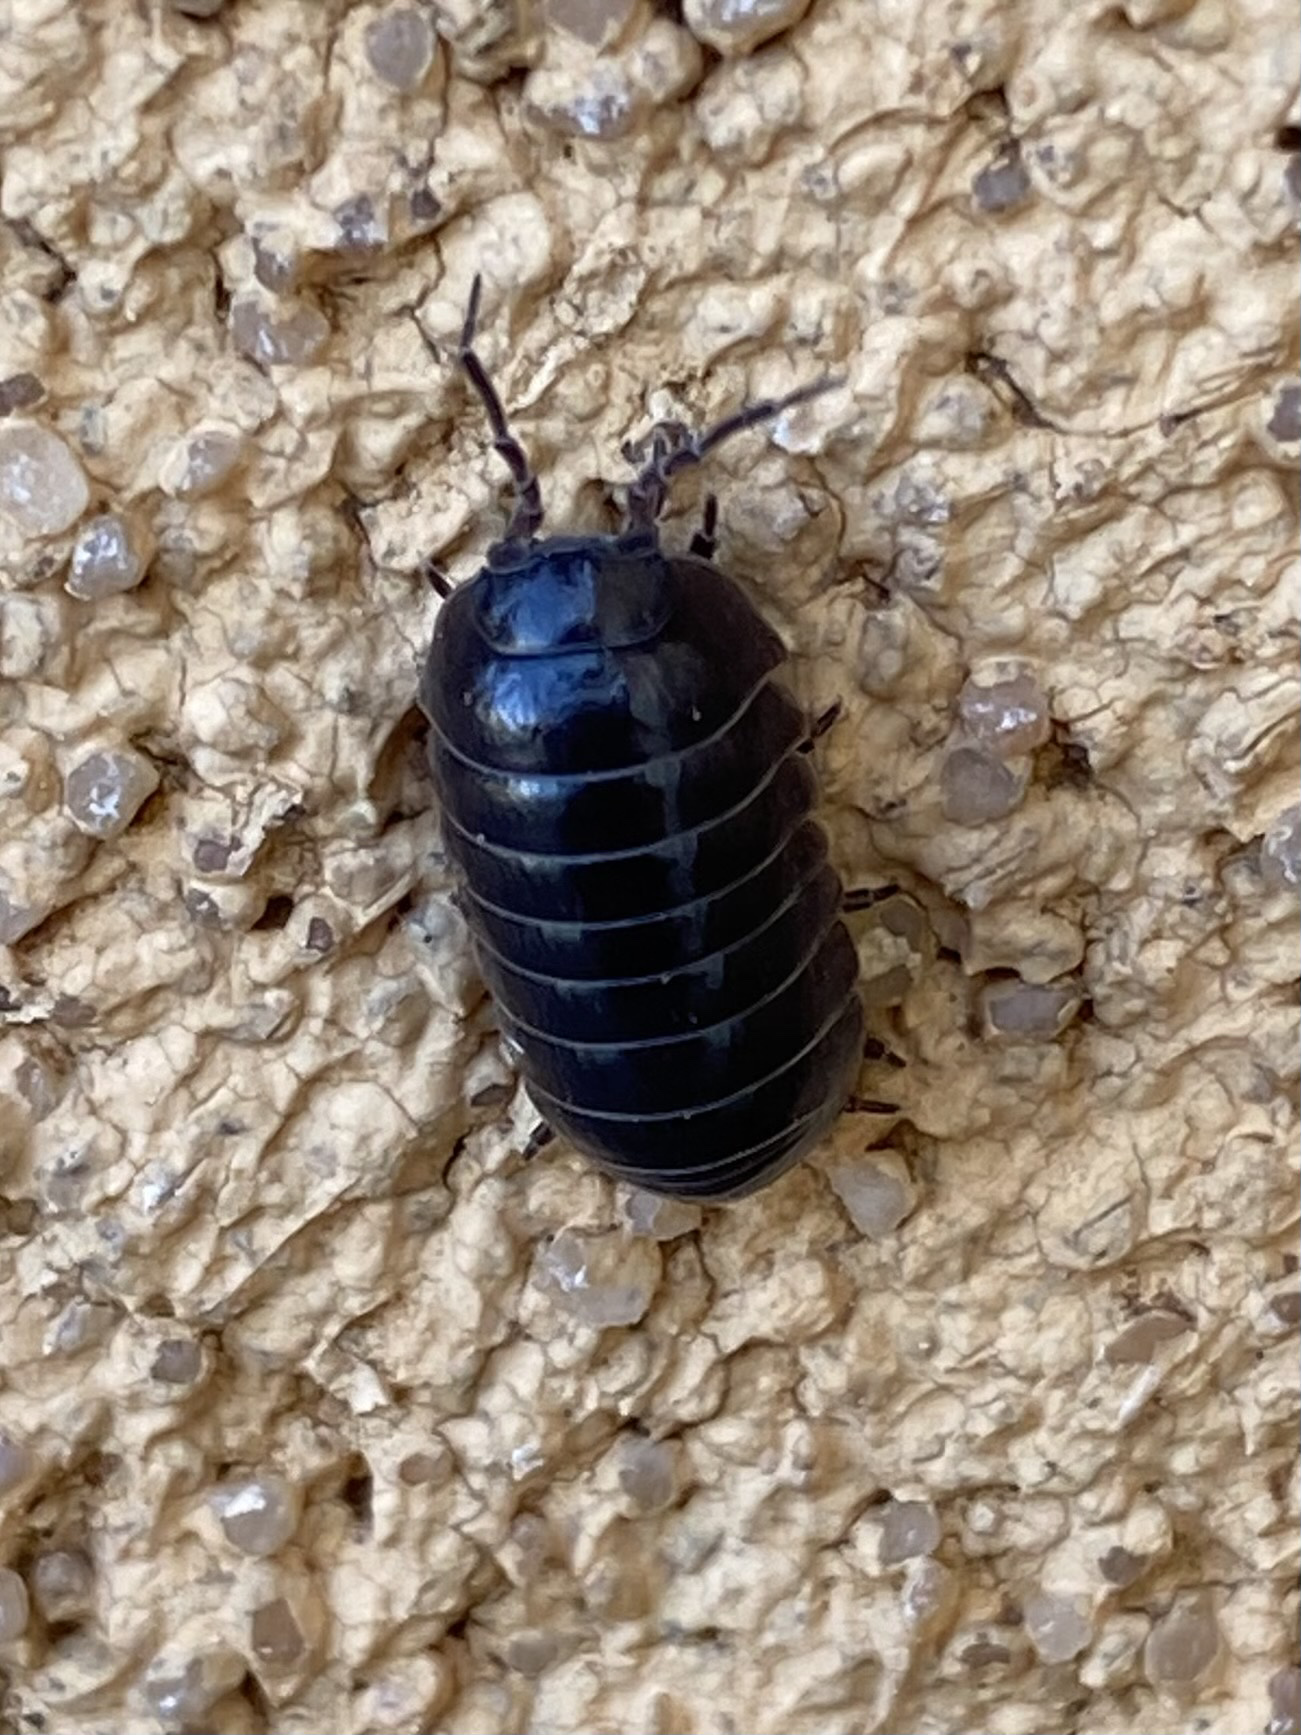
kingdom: Animalia
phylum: Arthropoda
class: Malacostraca
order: Isopoda
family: Armadillidiidae
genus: Armadillidium
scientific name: Armadillidium vulgare
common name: Common pill woodlouse
